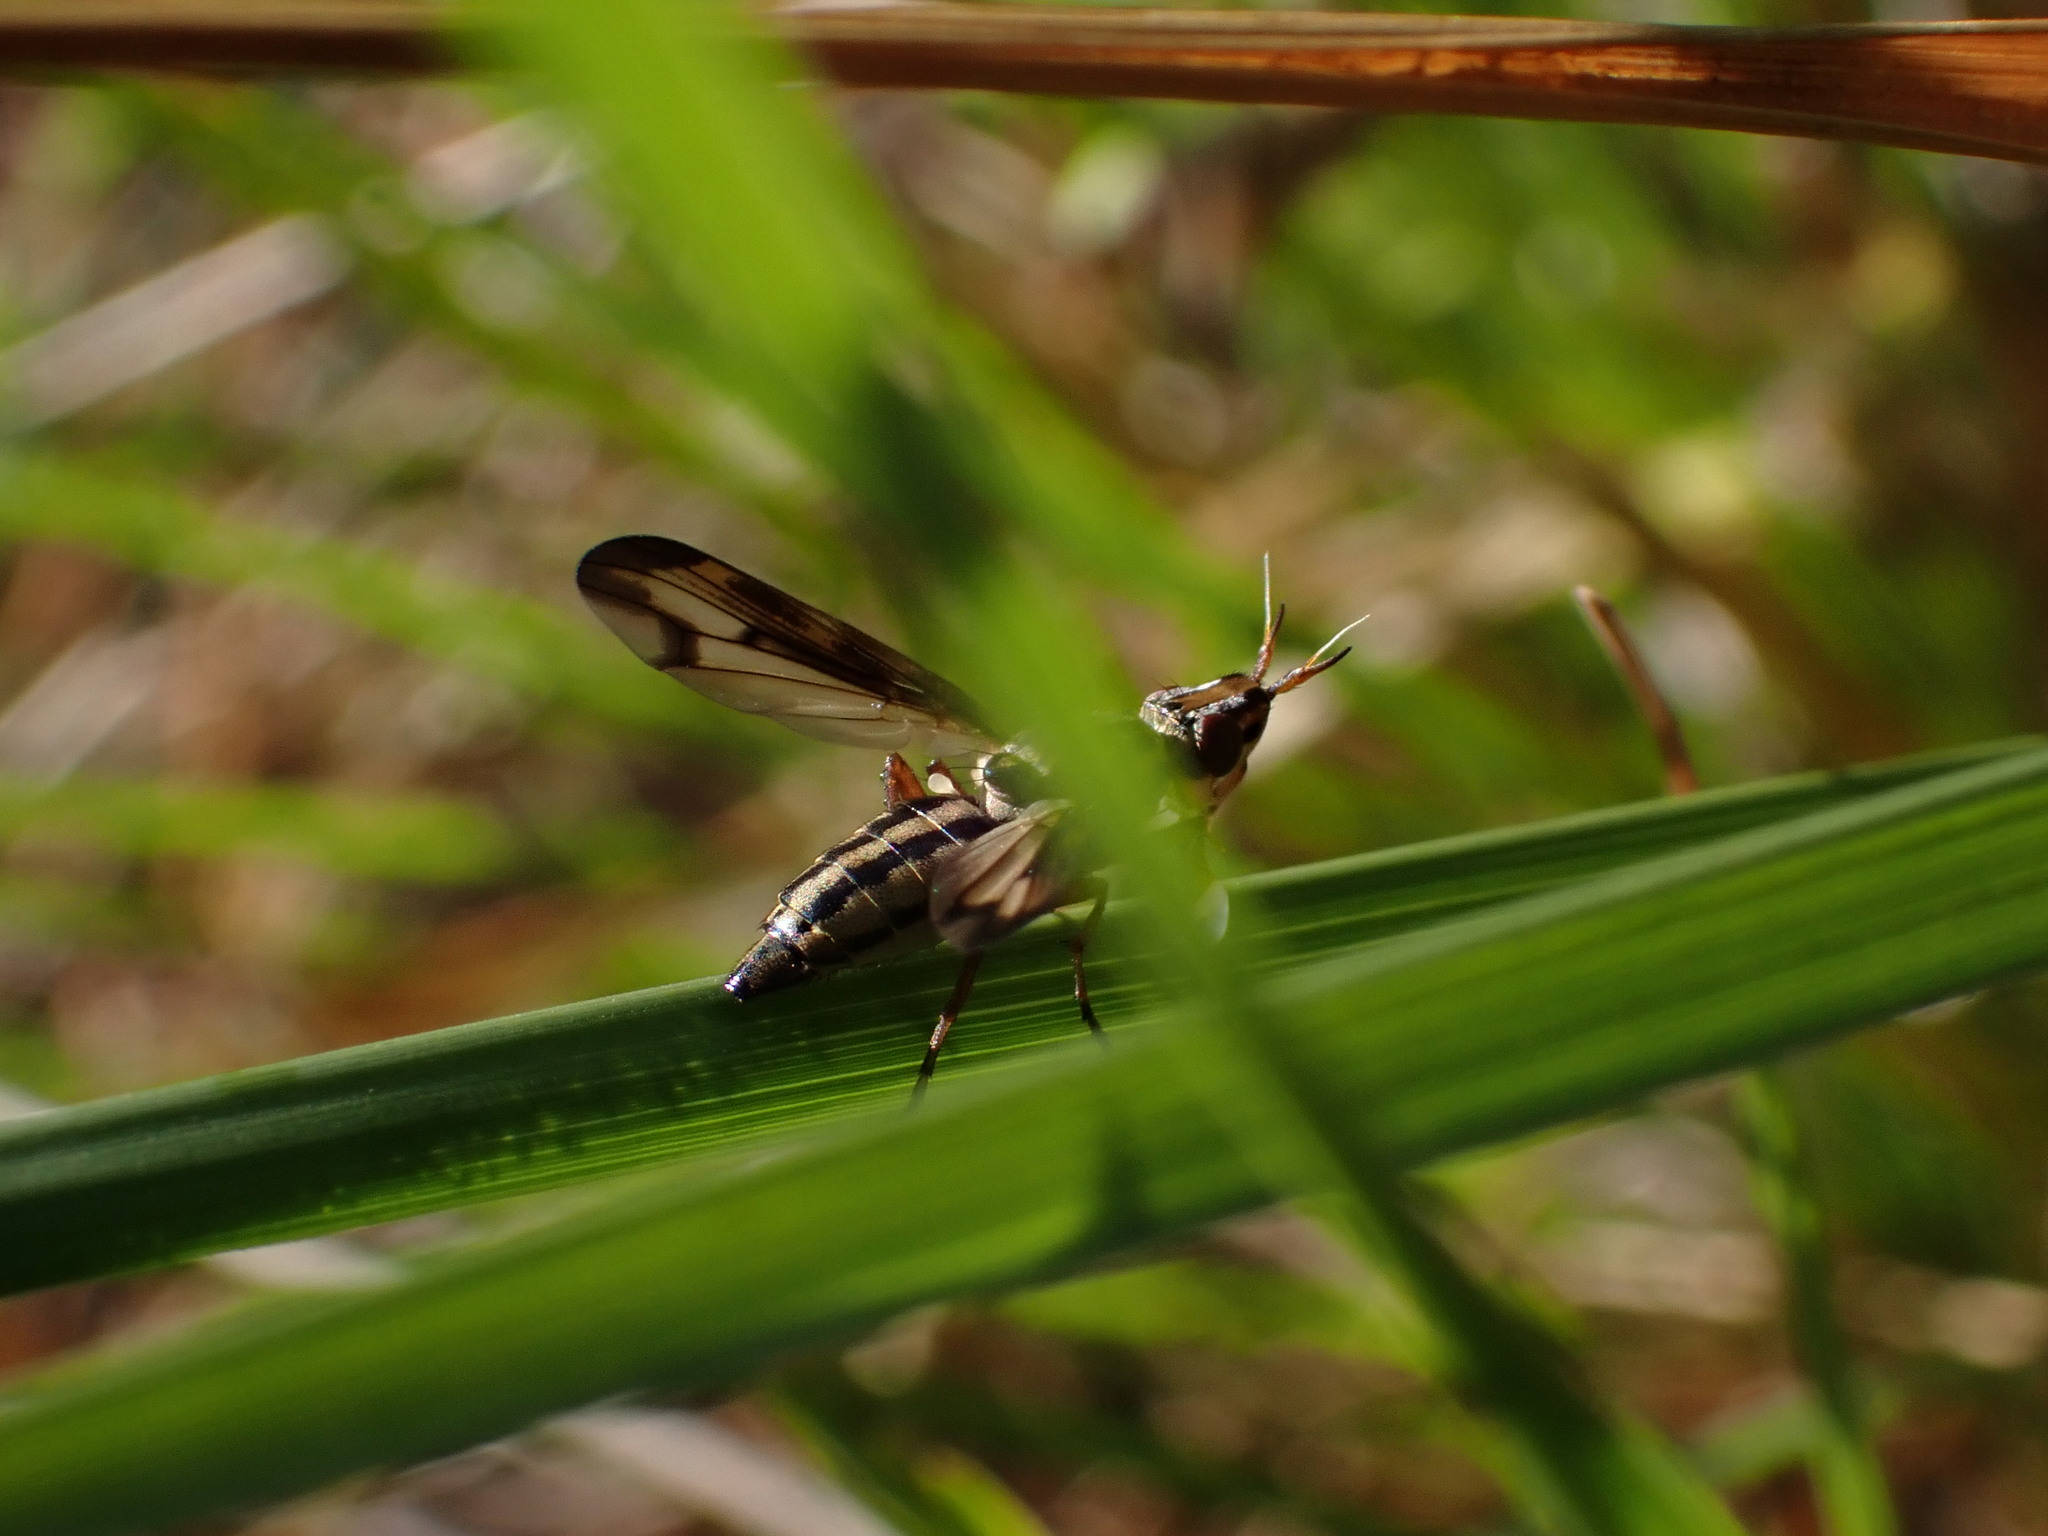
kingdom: Animalia
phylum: Arthropoda
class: Insecta
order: Diptera
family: Ulidiidae
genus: Dorycera
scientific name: Dorycera grandis
